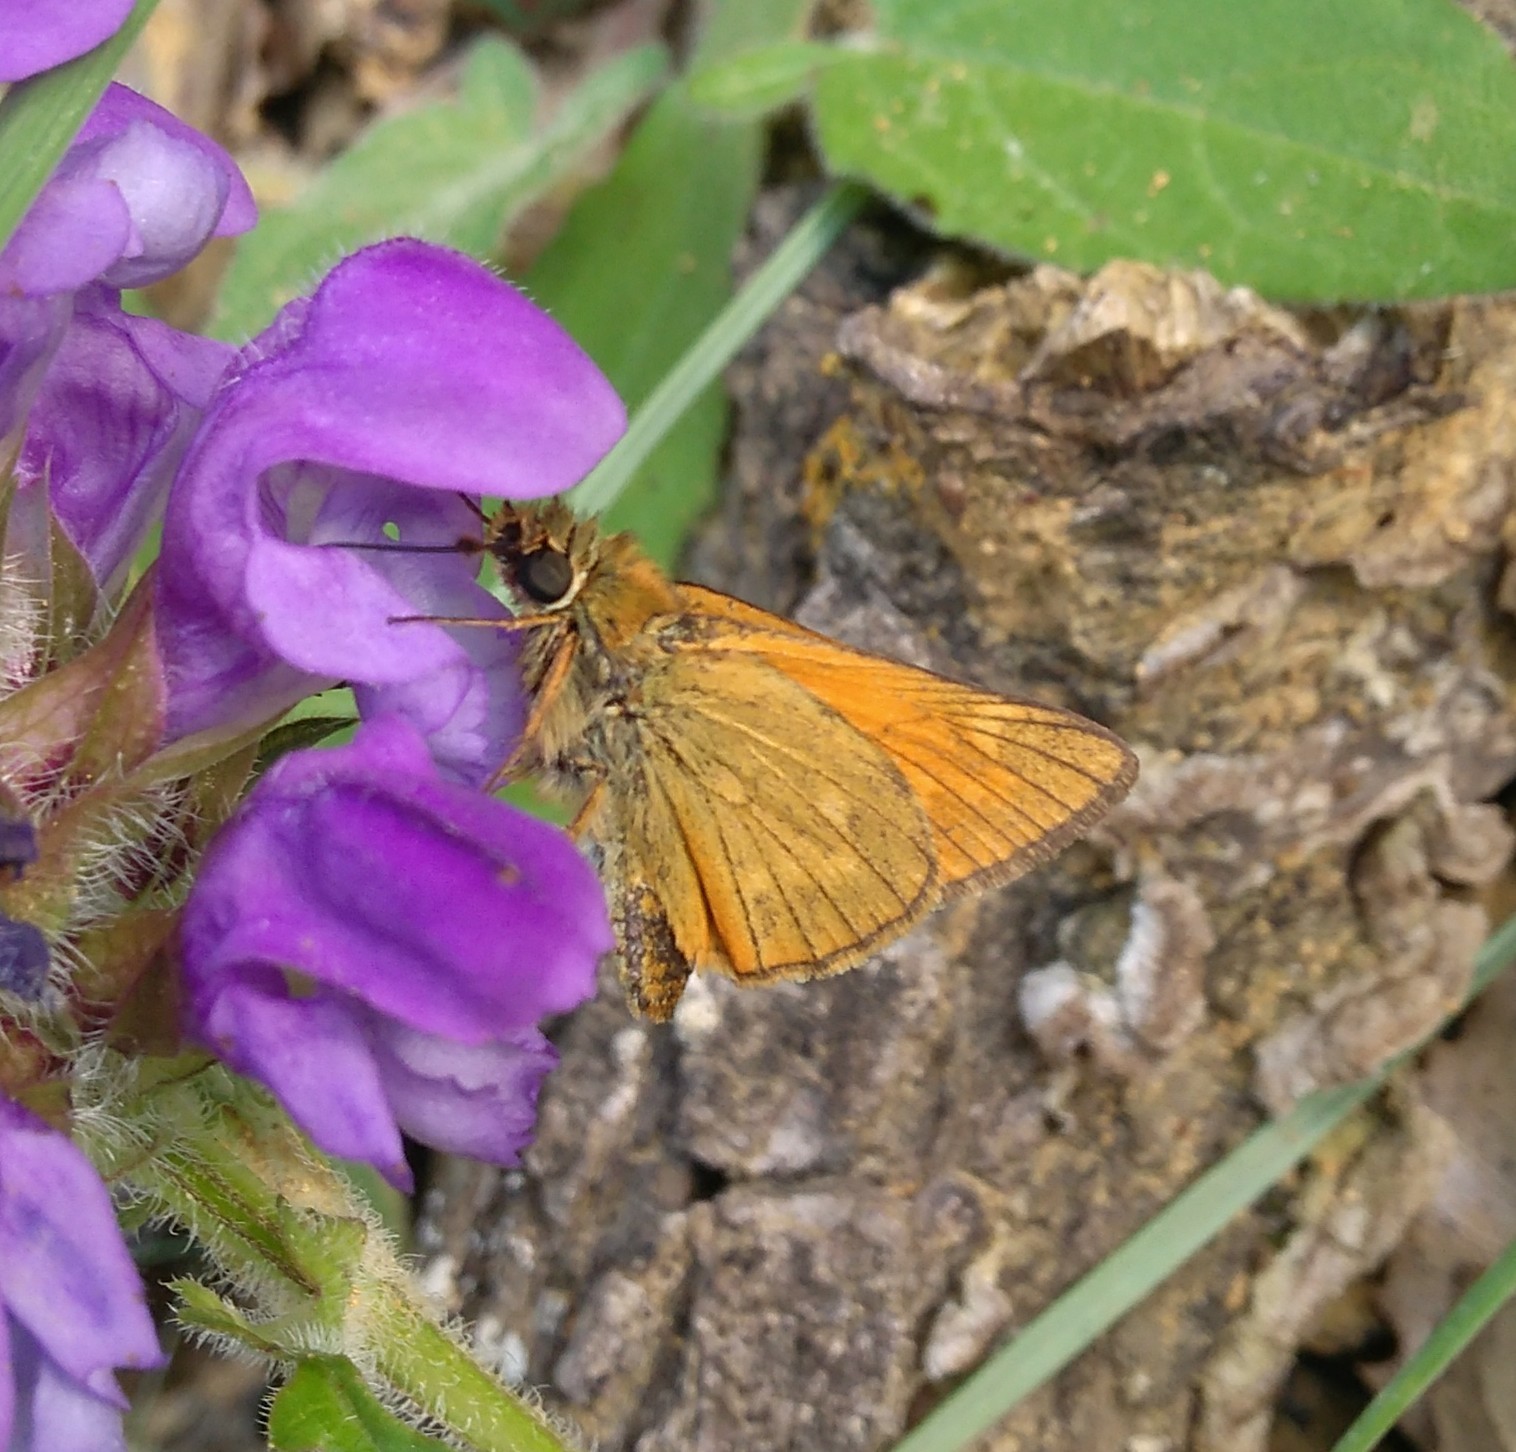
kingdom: Animalia
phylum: Arthropoda
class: Insecta
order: Lepidoptera
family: Hesperiidae
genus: Ochlodes
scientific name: Ochlodes venata
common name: Large skipper
